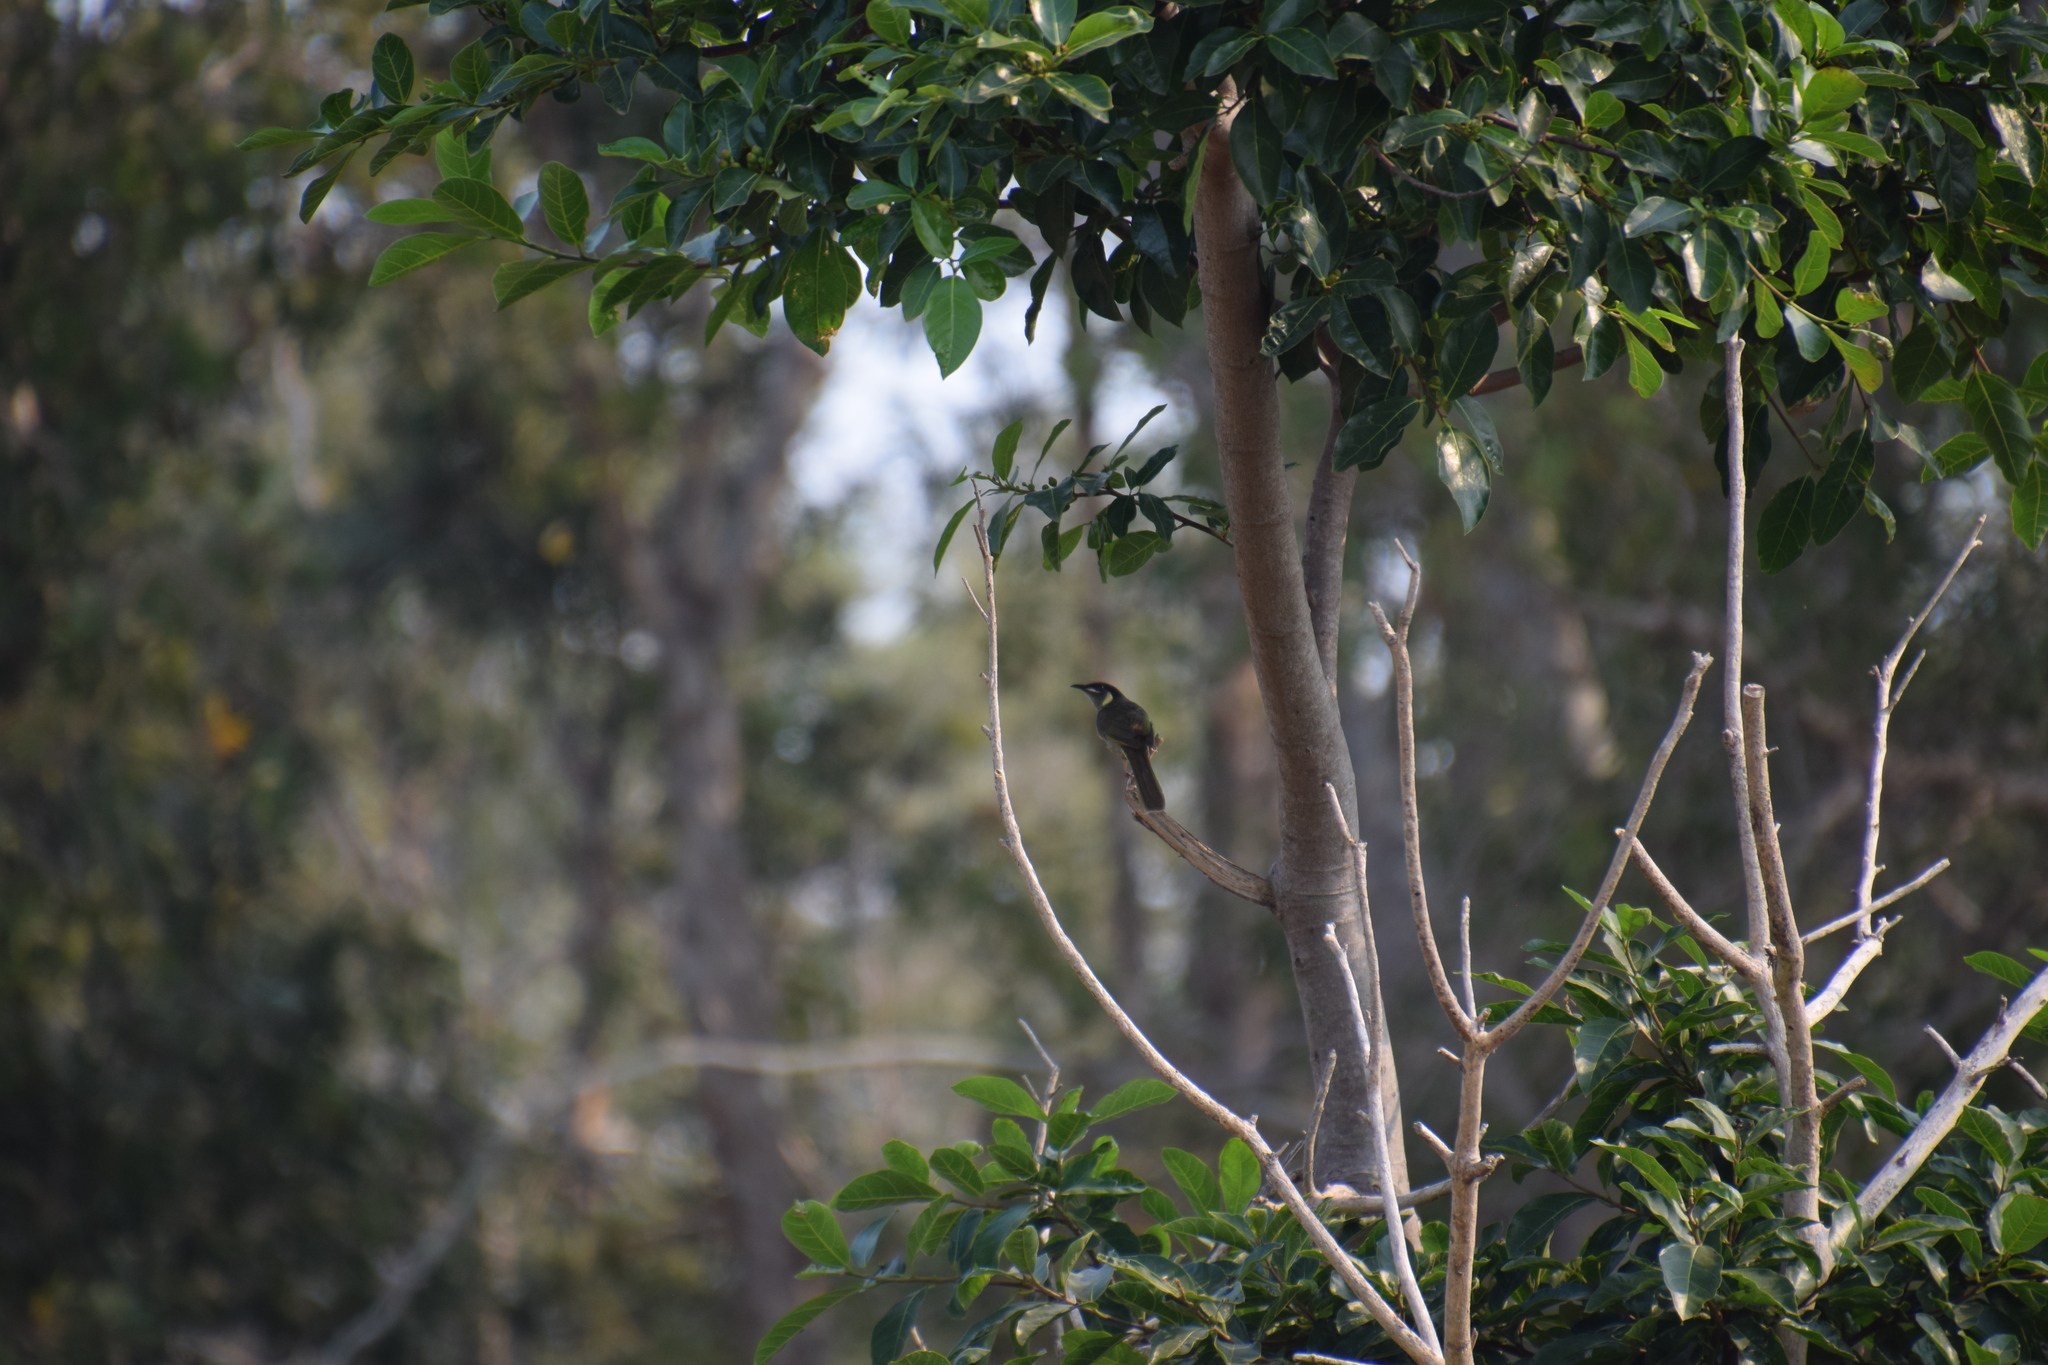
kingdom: Animalia
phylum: Chordata
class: Aves
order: Passeriformes
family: Meliphagidae
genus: Meliphaga
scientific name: Meliphaga lewinii
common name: Lewin's honeyeater
